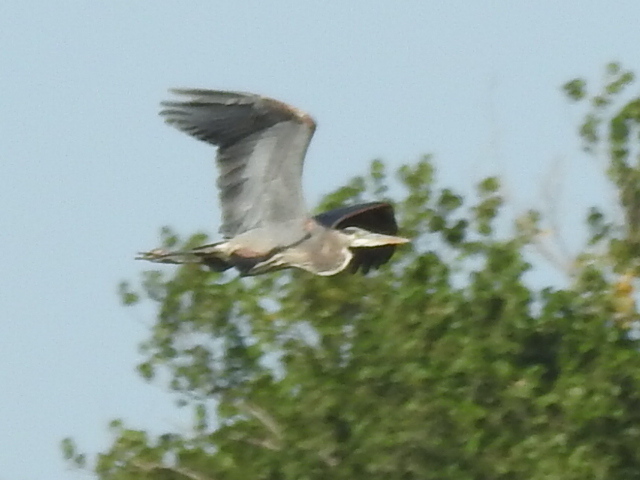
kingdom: Animalia
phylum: Chordata
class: Aves
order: Pelecaniformes
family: Ardeidae
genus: Ardea
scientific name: Ardea herodias
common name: Great blue heron
